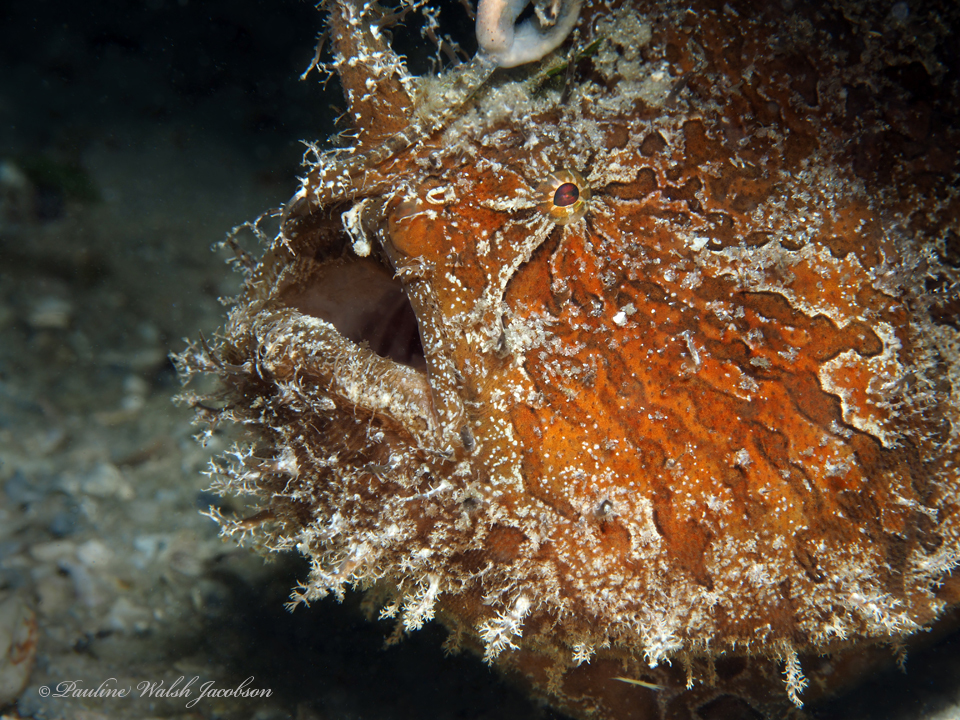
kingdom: Animalia
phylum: Chordata
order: Lophiiformes
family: Antennariidae
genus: Antennarius
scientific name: Antennarius striatus
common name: Striated frogfish
